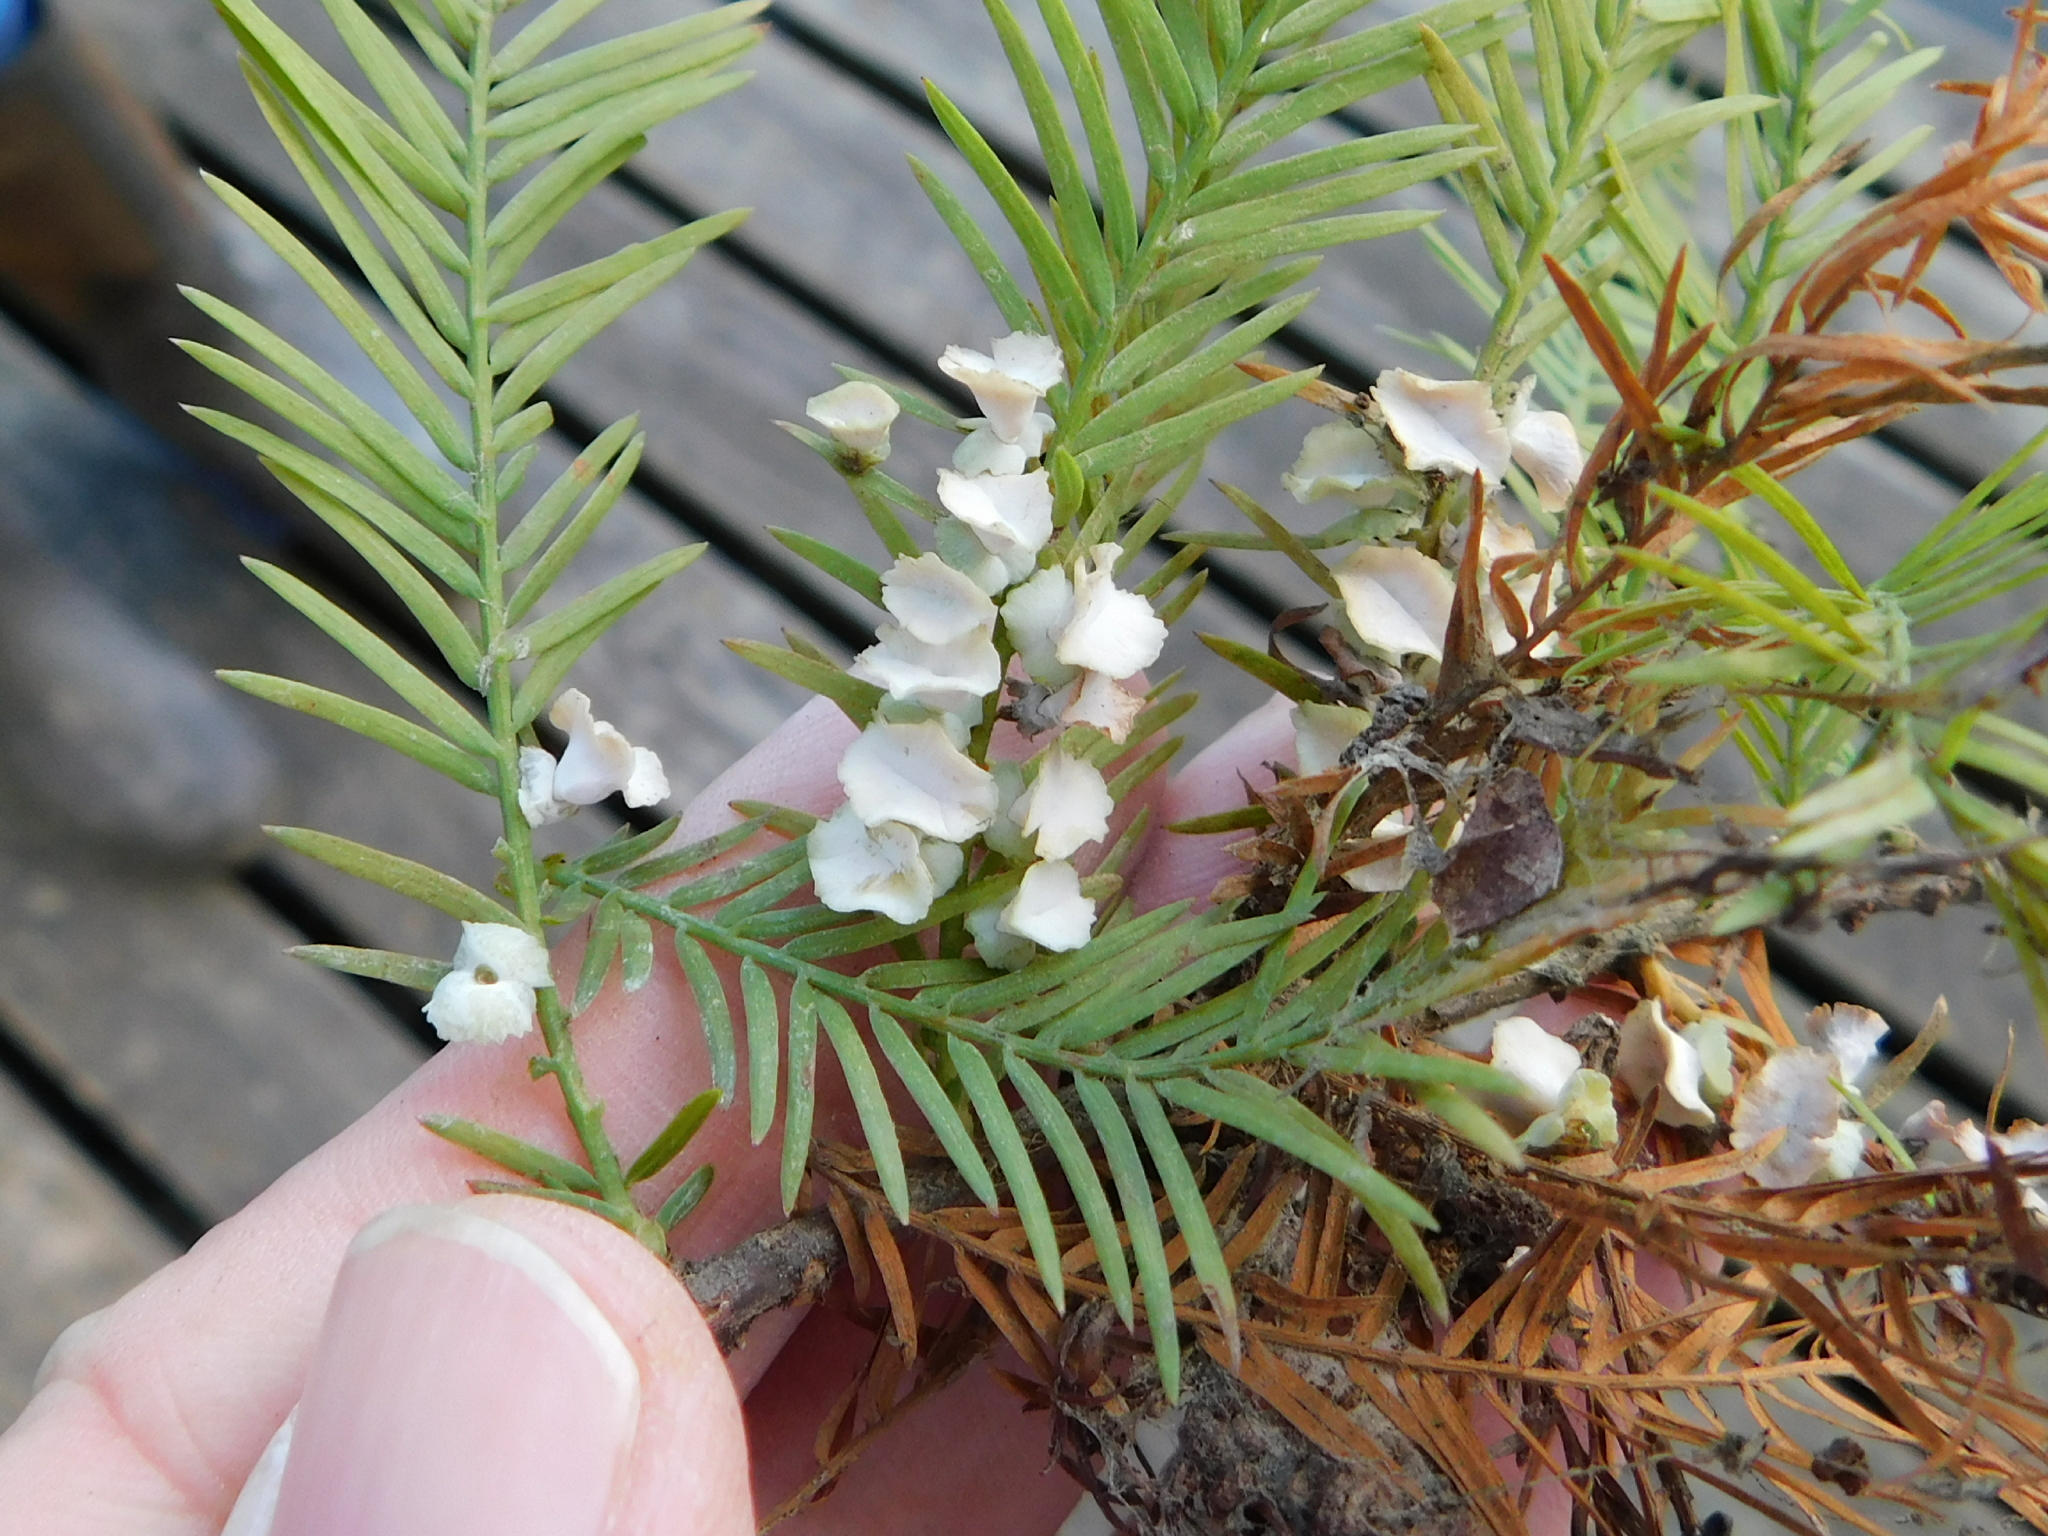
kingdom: Animalia
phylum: Arthropoda
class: Insecta
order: Diptera
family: Cecidomyiidae
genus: Taxodiomyia
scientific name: Taxodiomyia cupressi
